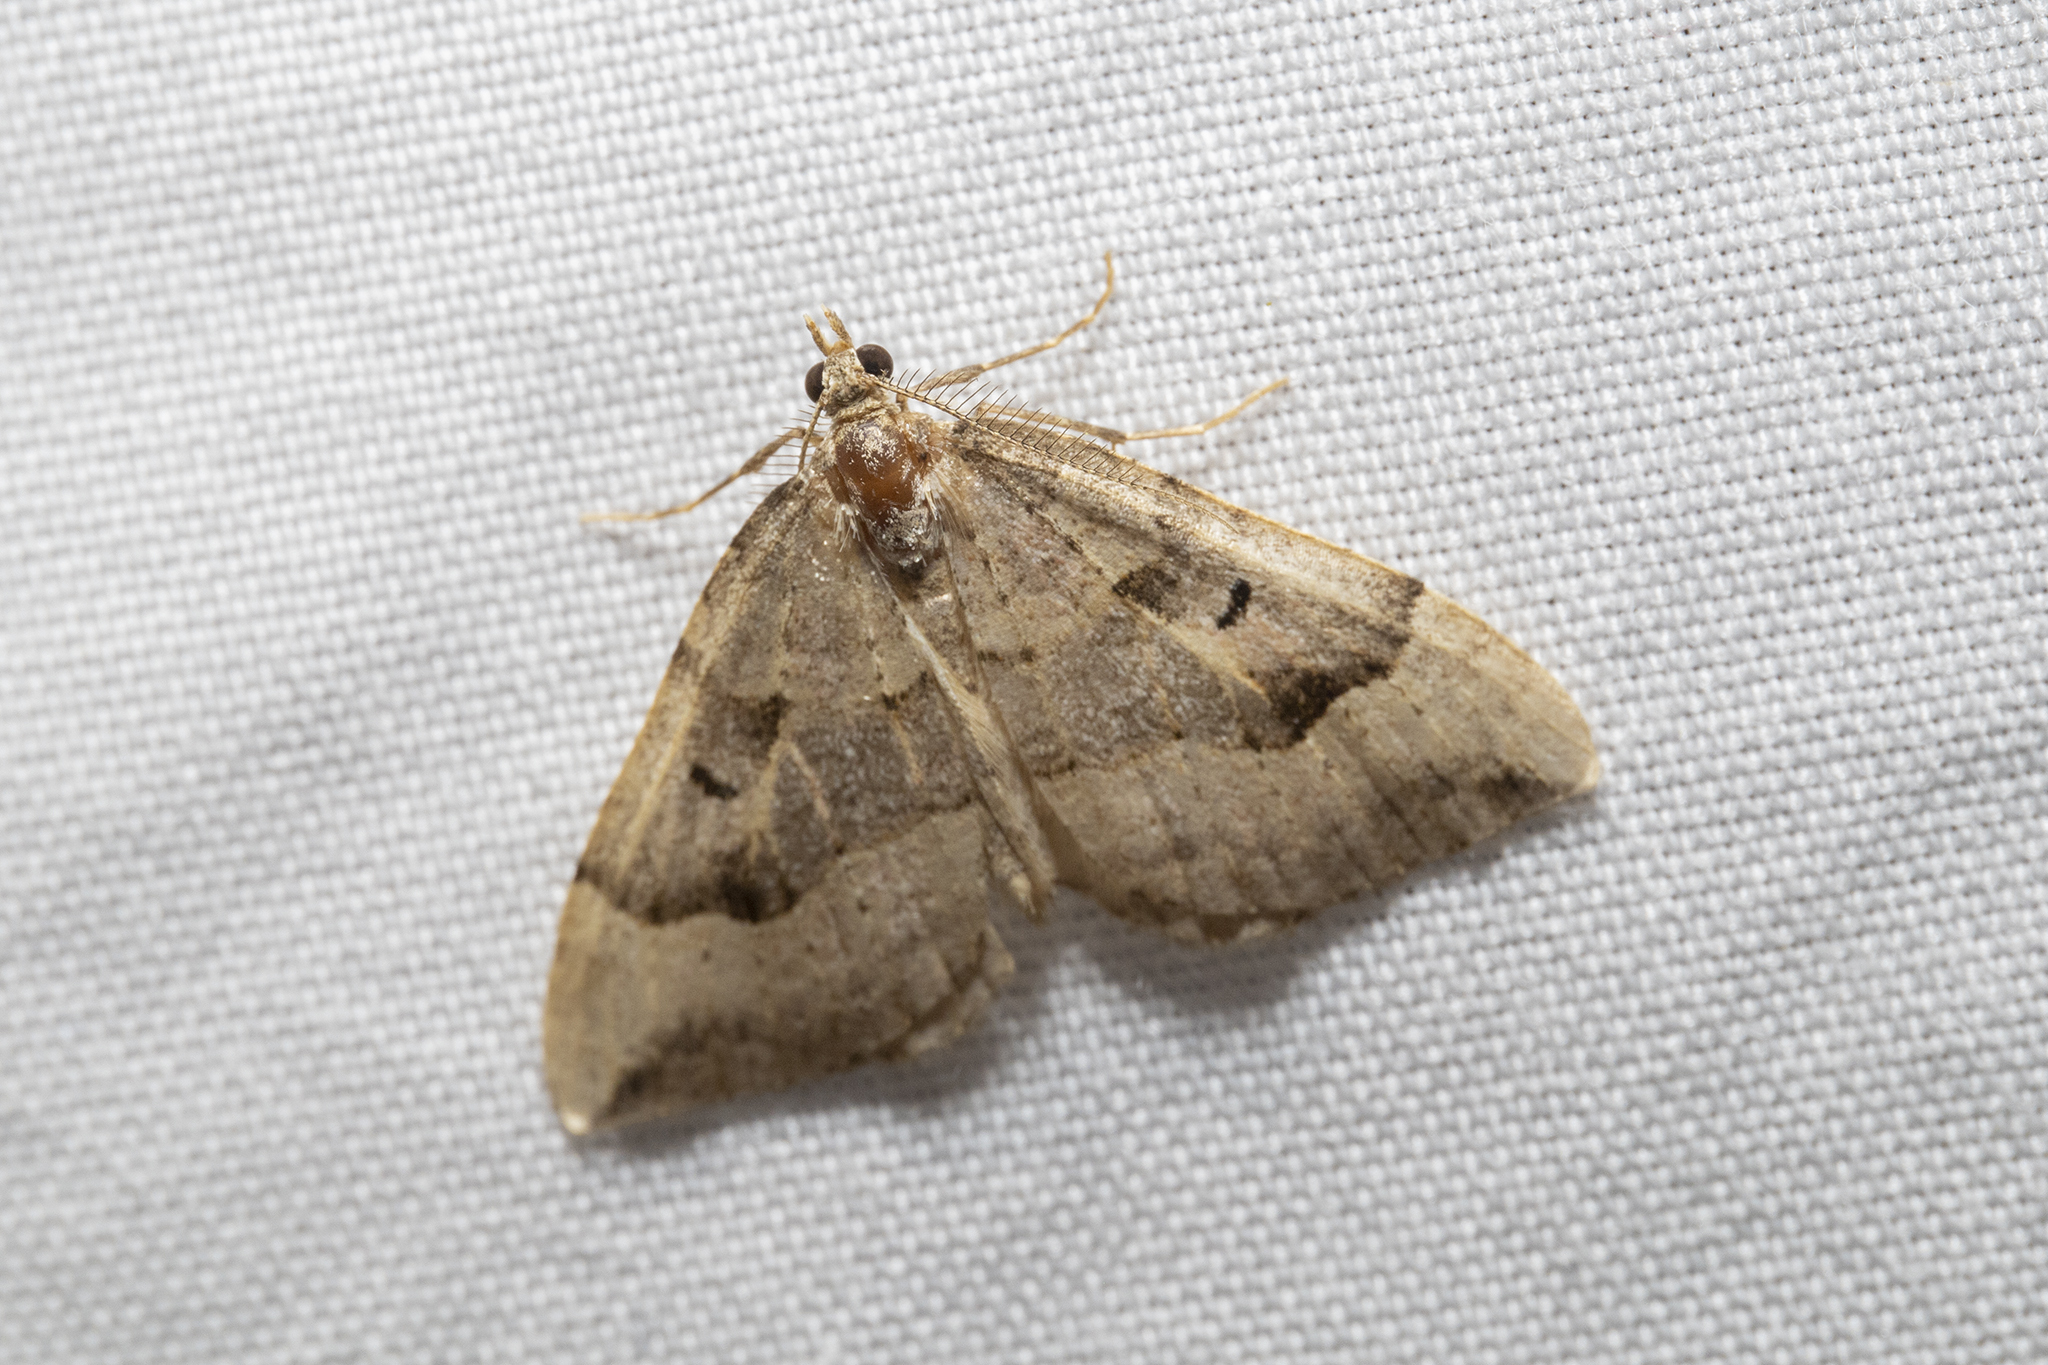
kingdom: Animalia
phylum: Arthropoda
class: Insecta
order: Lepidoptera
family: Geometridae
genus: Epyaxa
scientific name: Epyaxa rosearia
